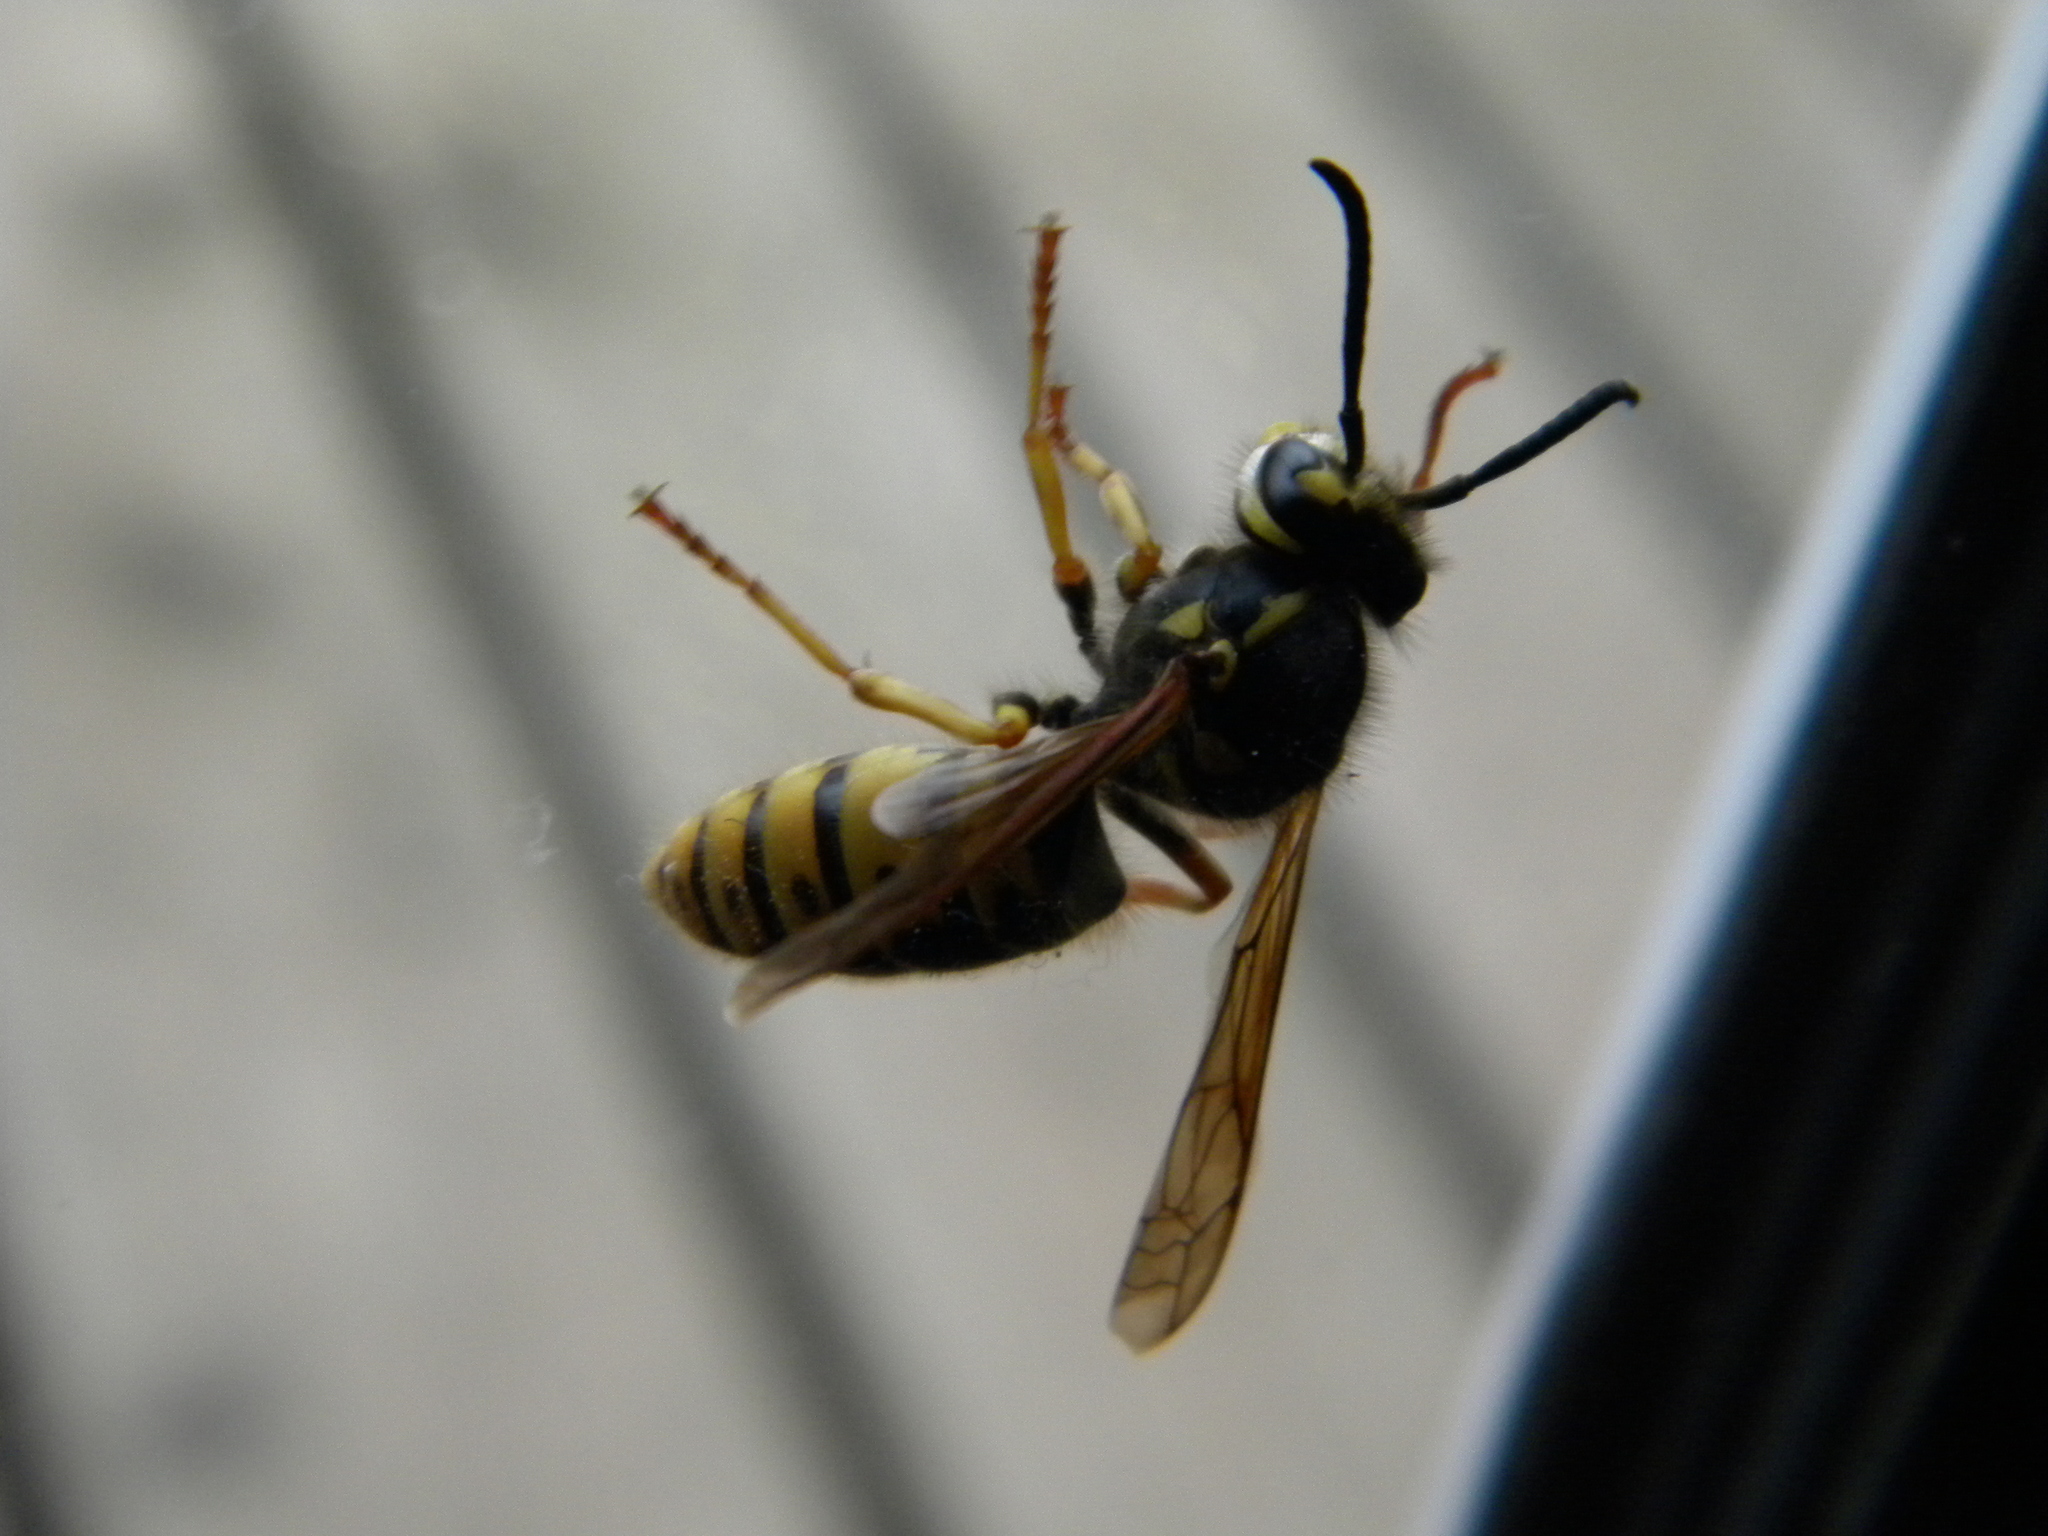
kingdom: Animalia
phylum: Arthropoda
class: Insecta
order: Hymenoptera
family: Vespidae
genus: Vespula
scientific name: Vespula germanica
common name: German wasp
